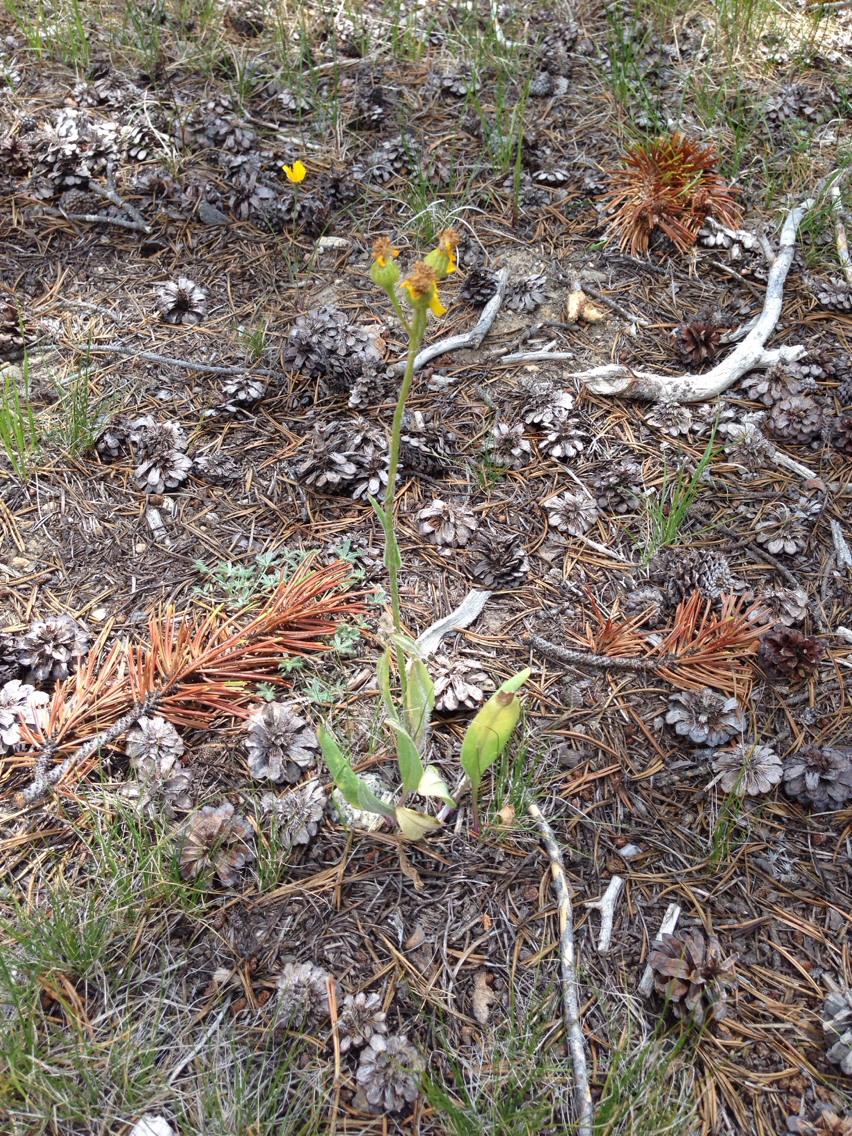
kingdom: Plantae
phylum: Tracheophyta
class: Magnoliopsida
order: Asterales
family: Asteraceae
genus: Senecio
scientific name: Senecio integerrimus
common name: Gaugeplant
